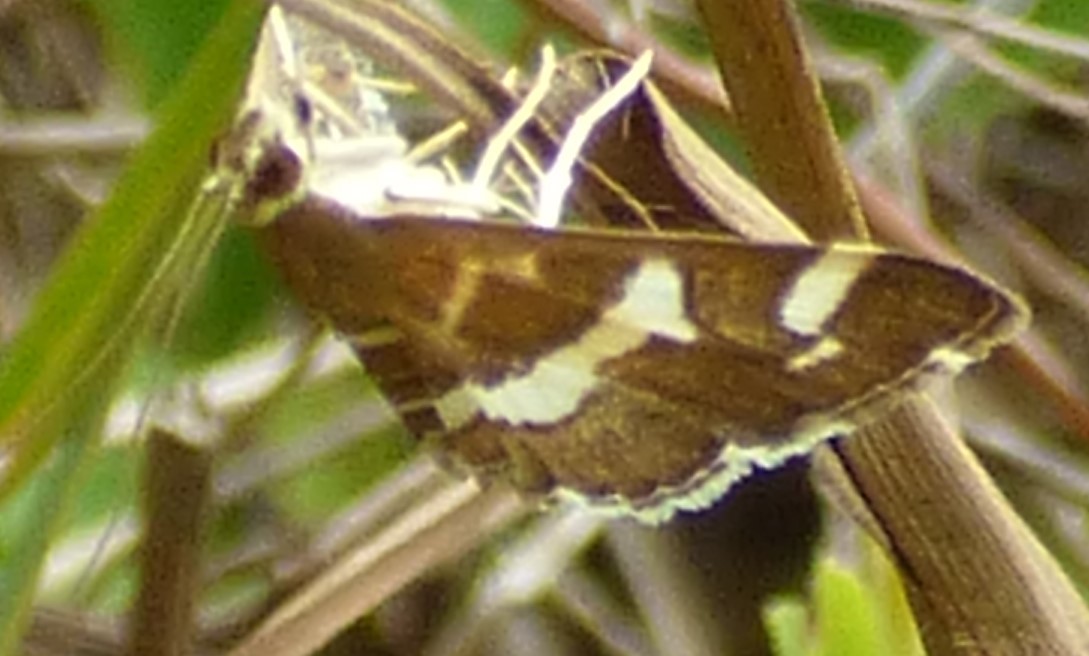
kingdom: Animalia
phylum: Arthropoda
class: Insecta
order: Lepidoptera
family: Crambidae
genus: Spoladea
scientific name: Spoladea recurvalis
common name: Beet webworm moth
